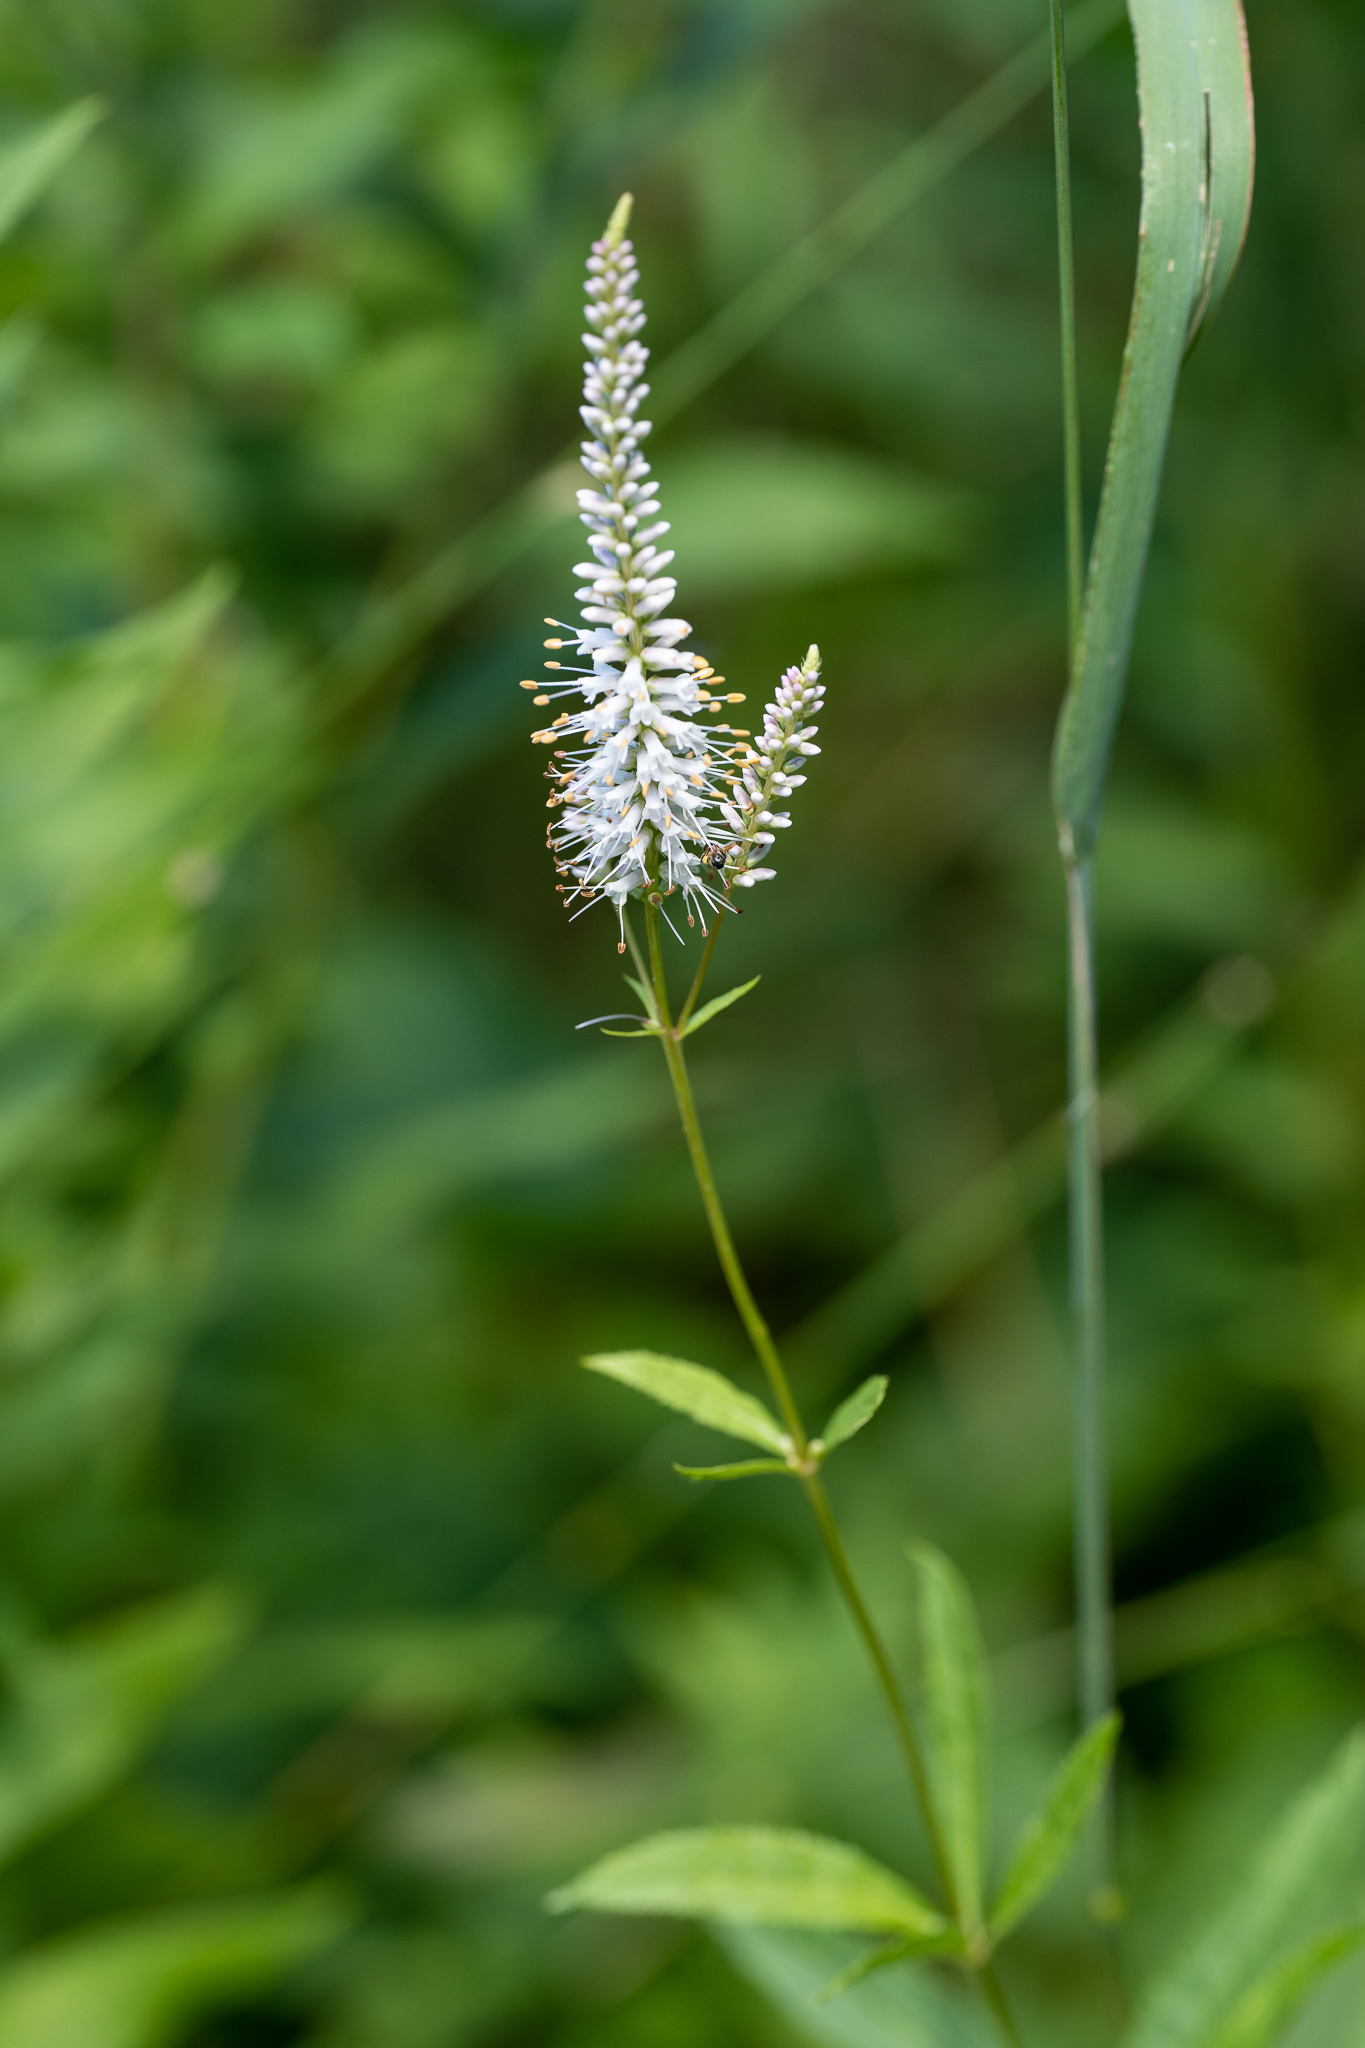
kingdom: Plantae
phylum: Tracheophyta
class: Magnoliopsida
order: Lamiales
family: Plantaginaceae
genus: Veronicastrum
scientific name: Veronicastrum virginicum
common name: Blackroot
